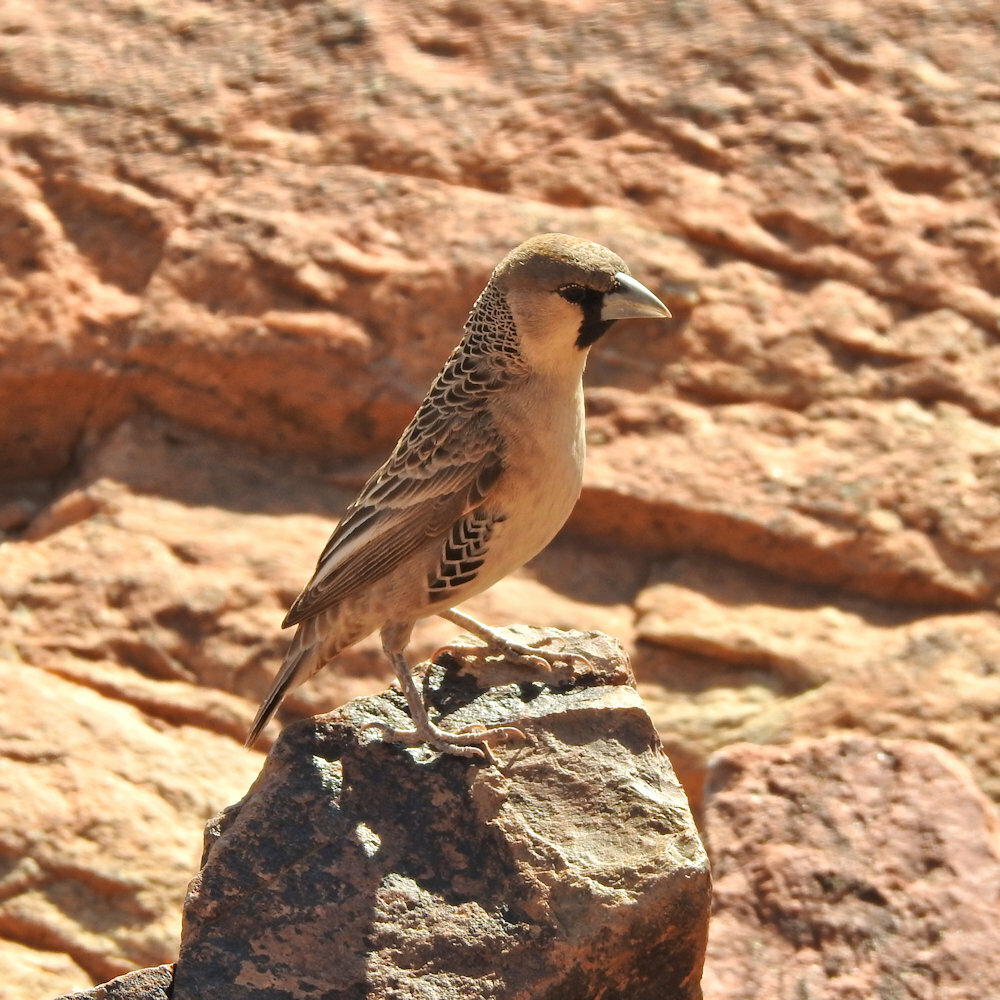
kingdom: Animalia
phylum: Chordata
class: Aves
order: Passeriformes
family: Passeridae
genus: Philetairus
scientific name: Philetairus socius
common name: Sociable weaver
